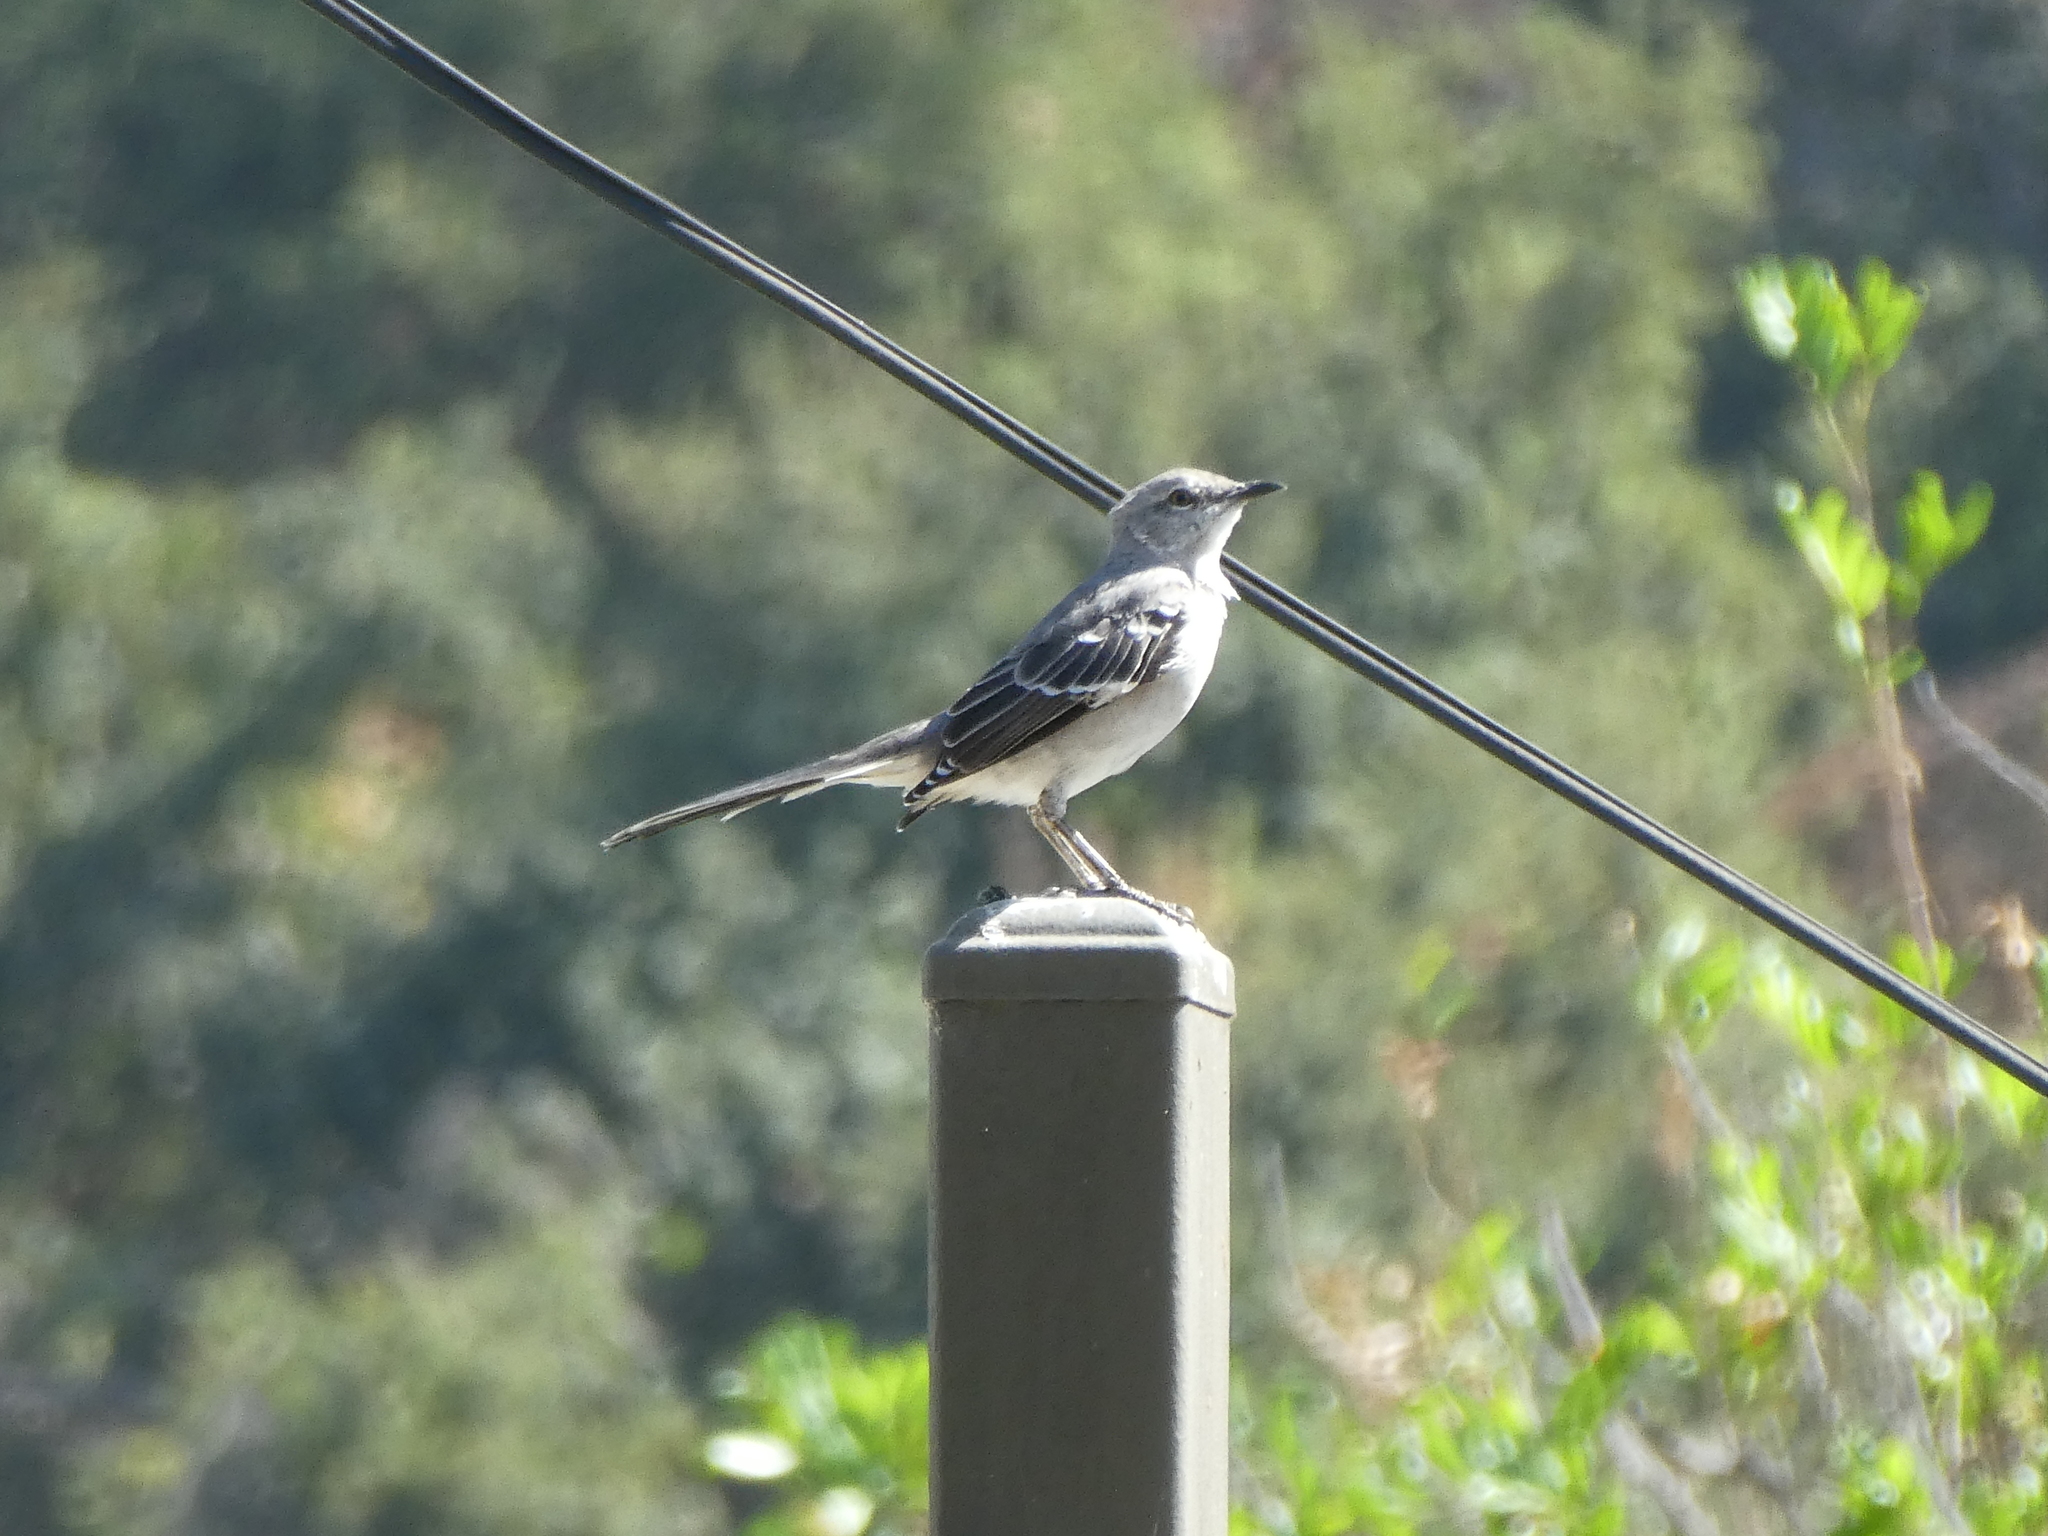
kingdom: Animalia
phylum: Chordata
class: Aves
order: Passeriformes
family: Mimidae
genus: Mimus
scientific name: Mimus polyglottos
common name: Northern mockingbird
